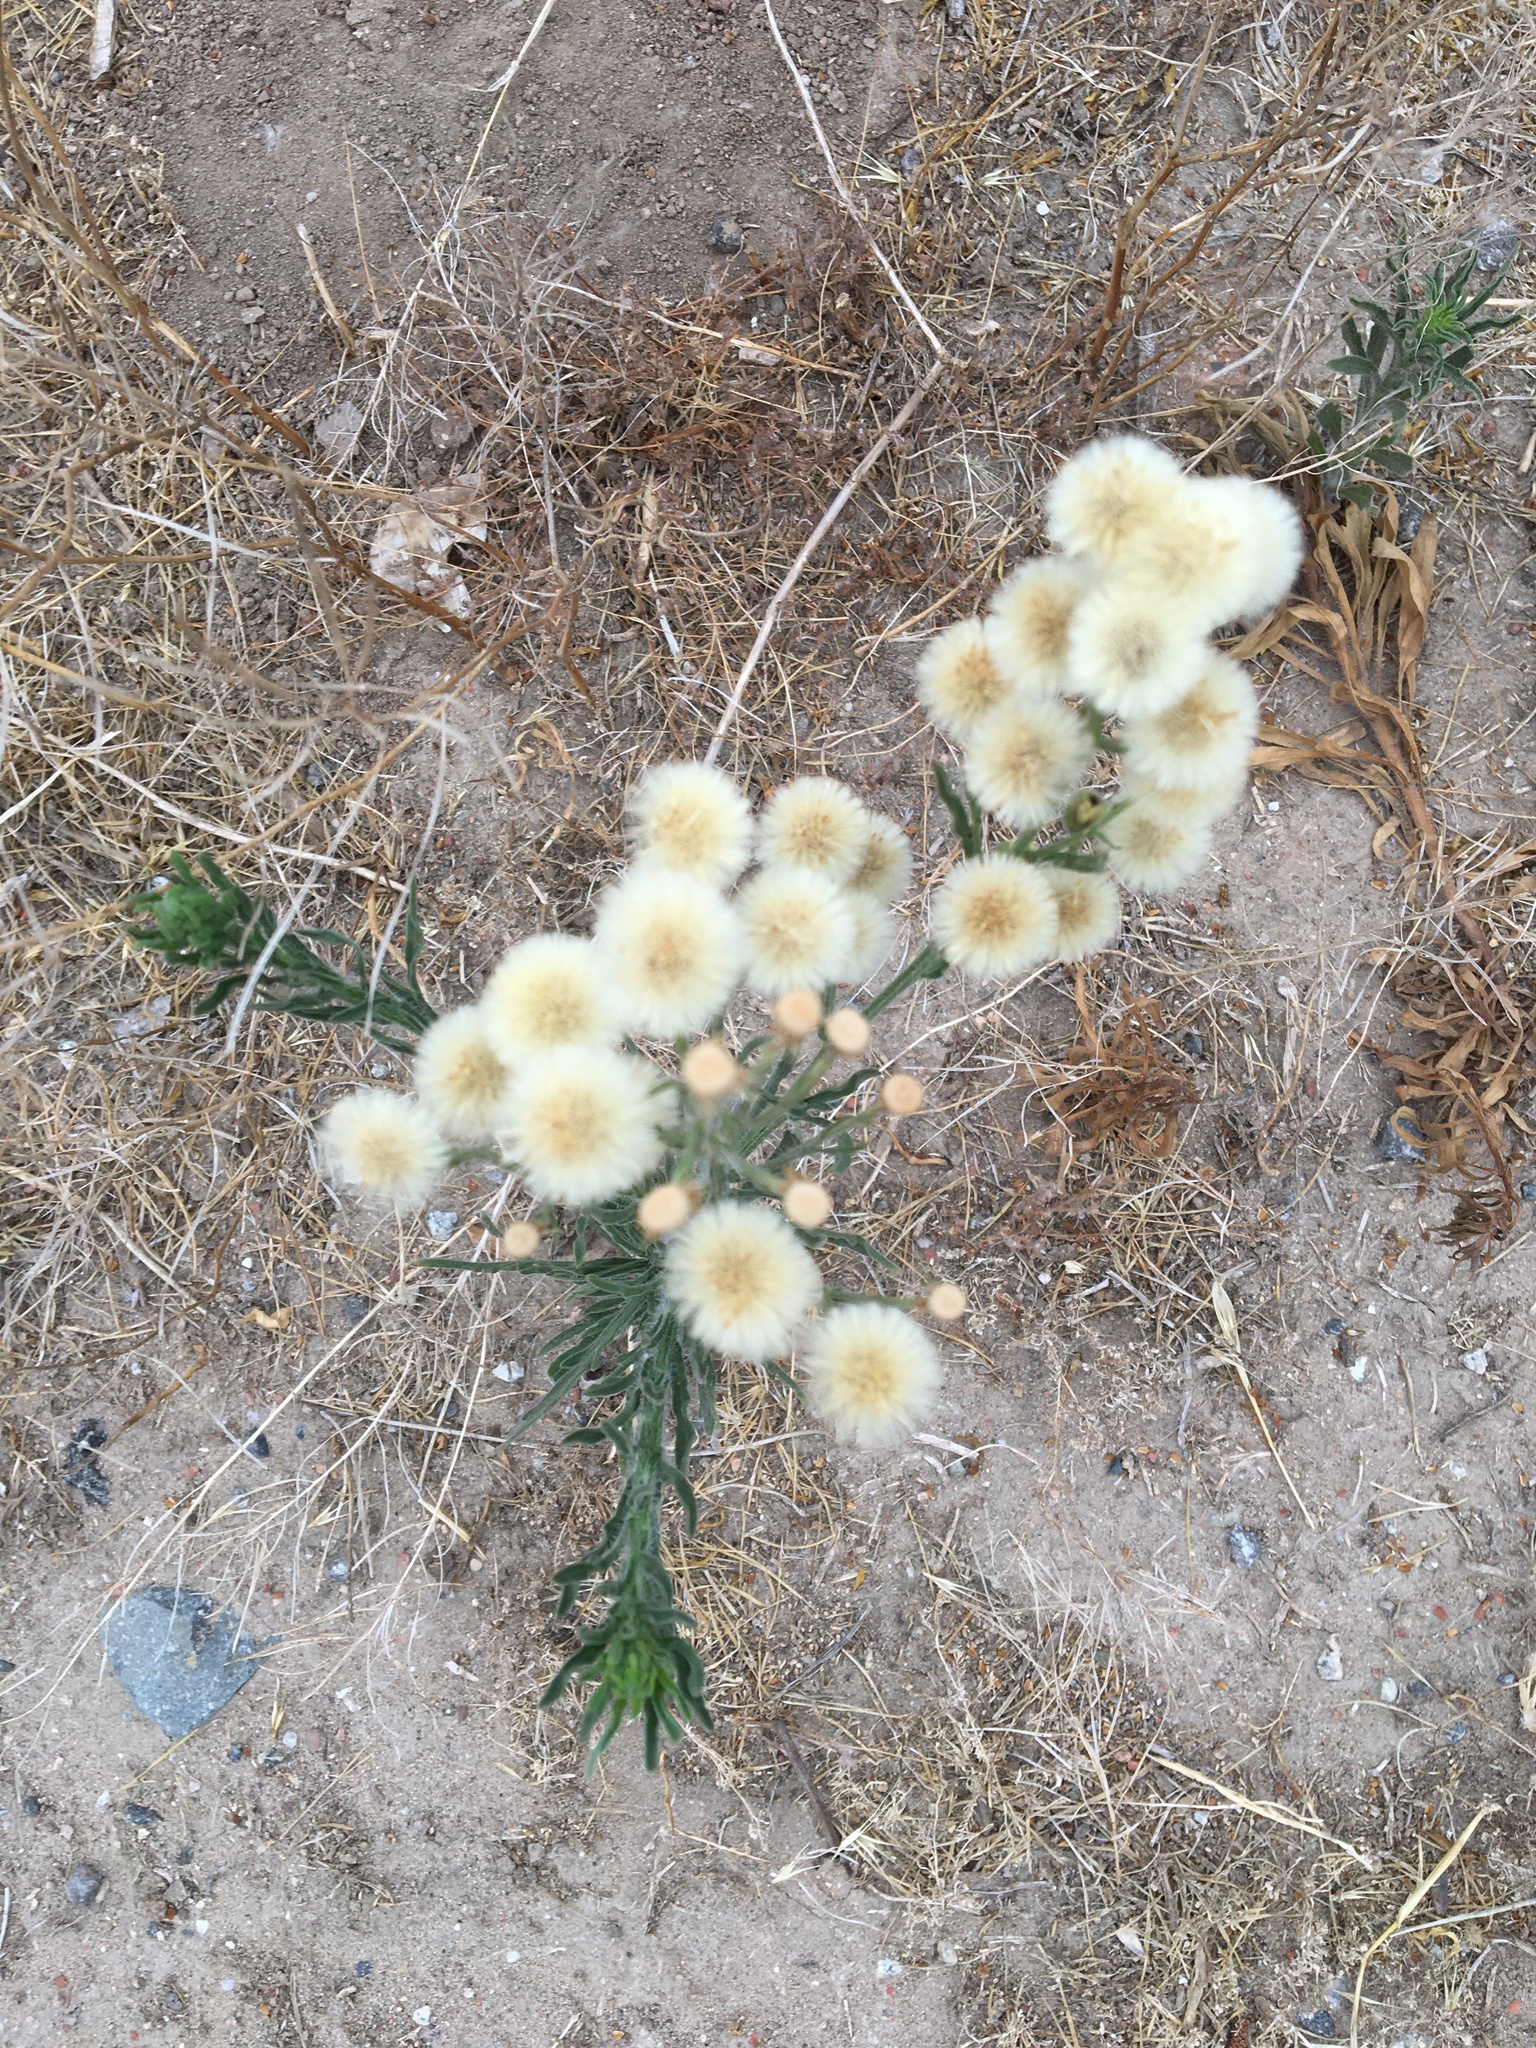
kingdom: Plantae
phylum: Tracheophyta
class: Magnoliopsida
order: Asterales
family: Asteraceae
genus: Erigeron
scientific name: Erigeron bonariensis
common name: Argentine fleabane
